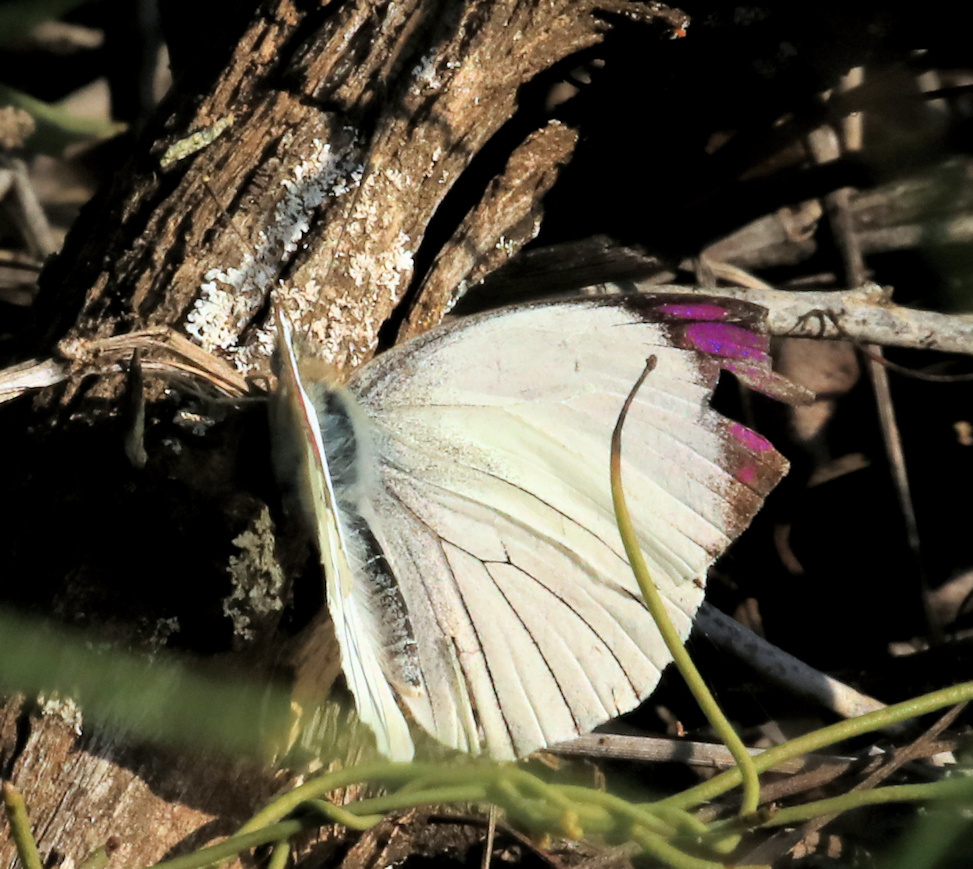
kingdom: Animalia
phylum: Arthropoda
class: Insecta
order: Lepidoptera
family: Pieridae
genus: Colotis
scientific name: Colotis ione
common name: Bushveld purple tip
